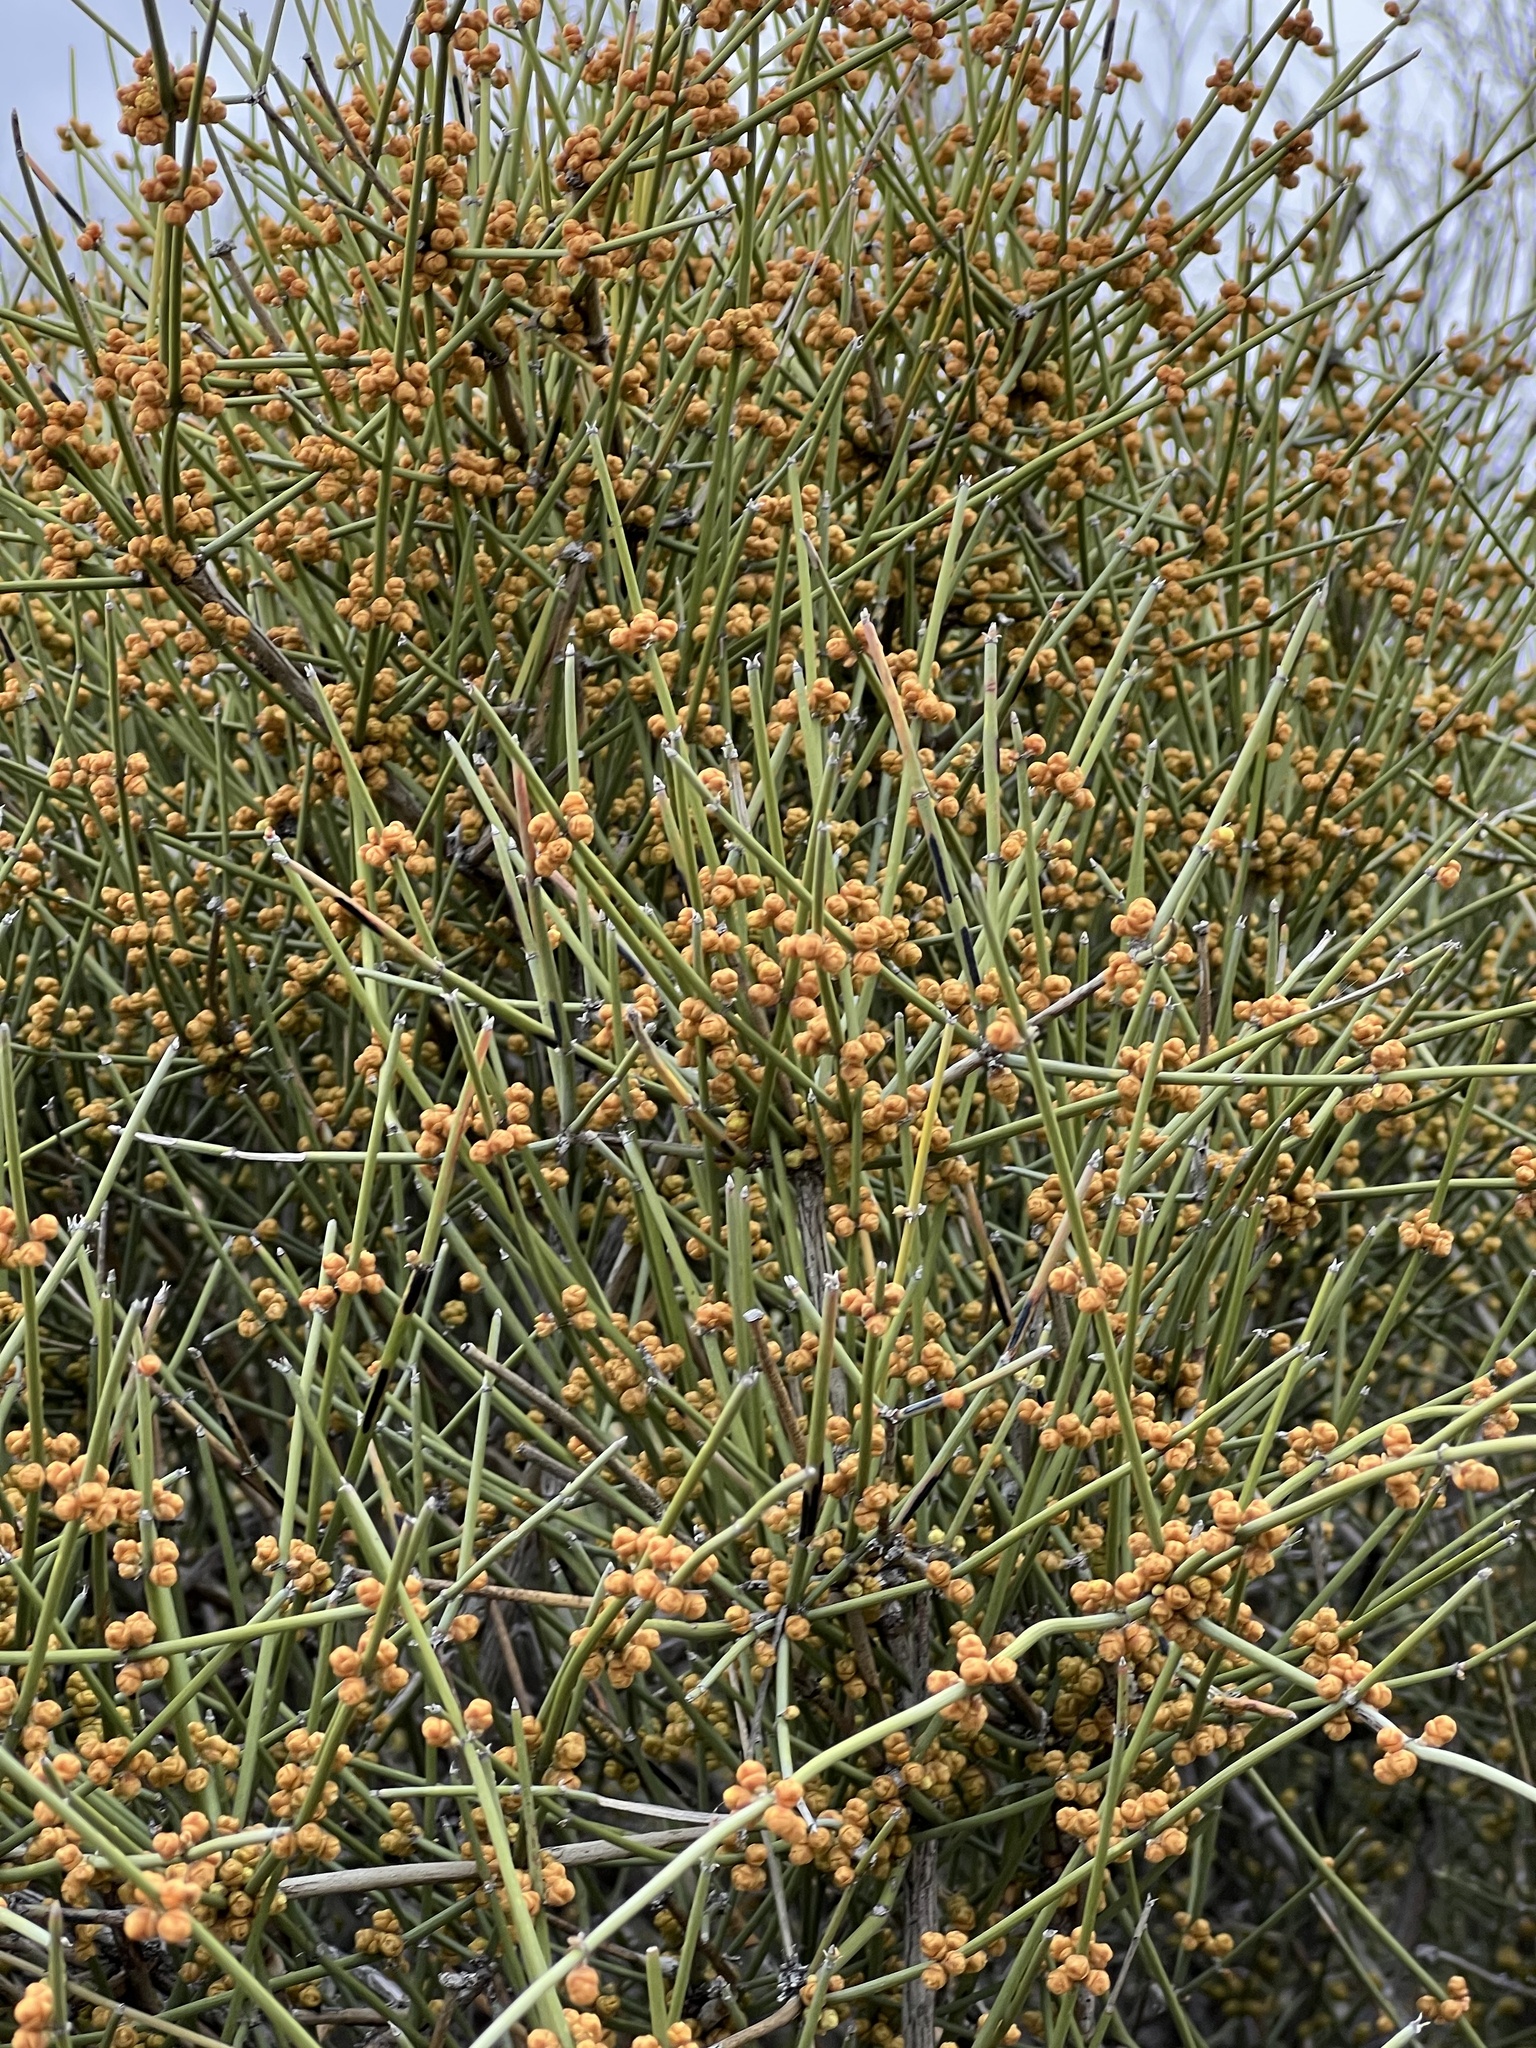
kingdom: Plantae
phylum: Tracheophyta
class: Gnetopsida
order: Ephedrales
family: Ephedraceae
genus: Ephedra
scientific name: Ephedra aspera
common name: Boundary ephedra
